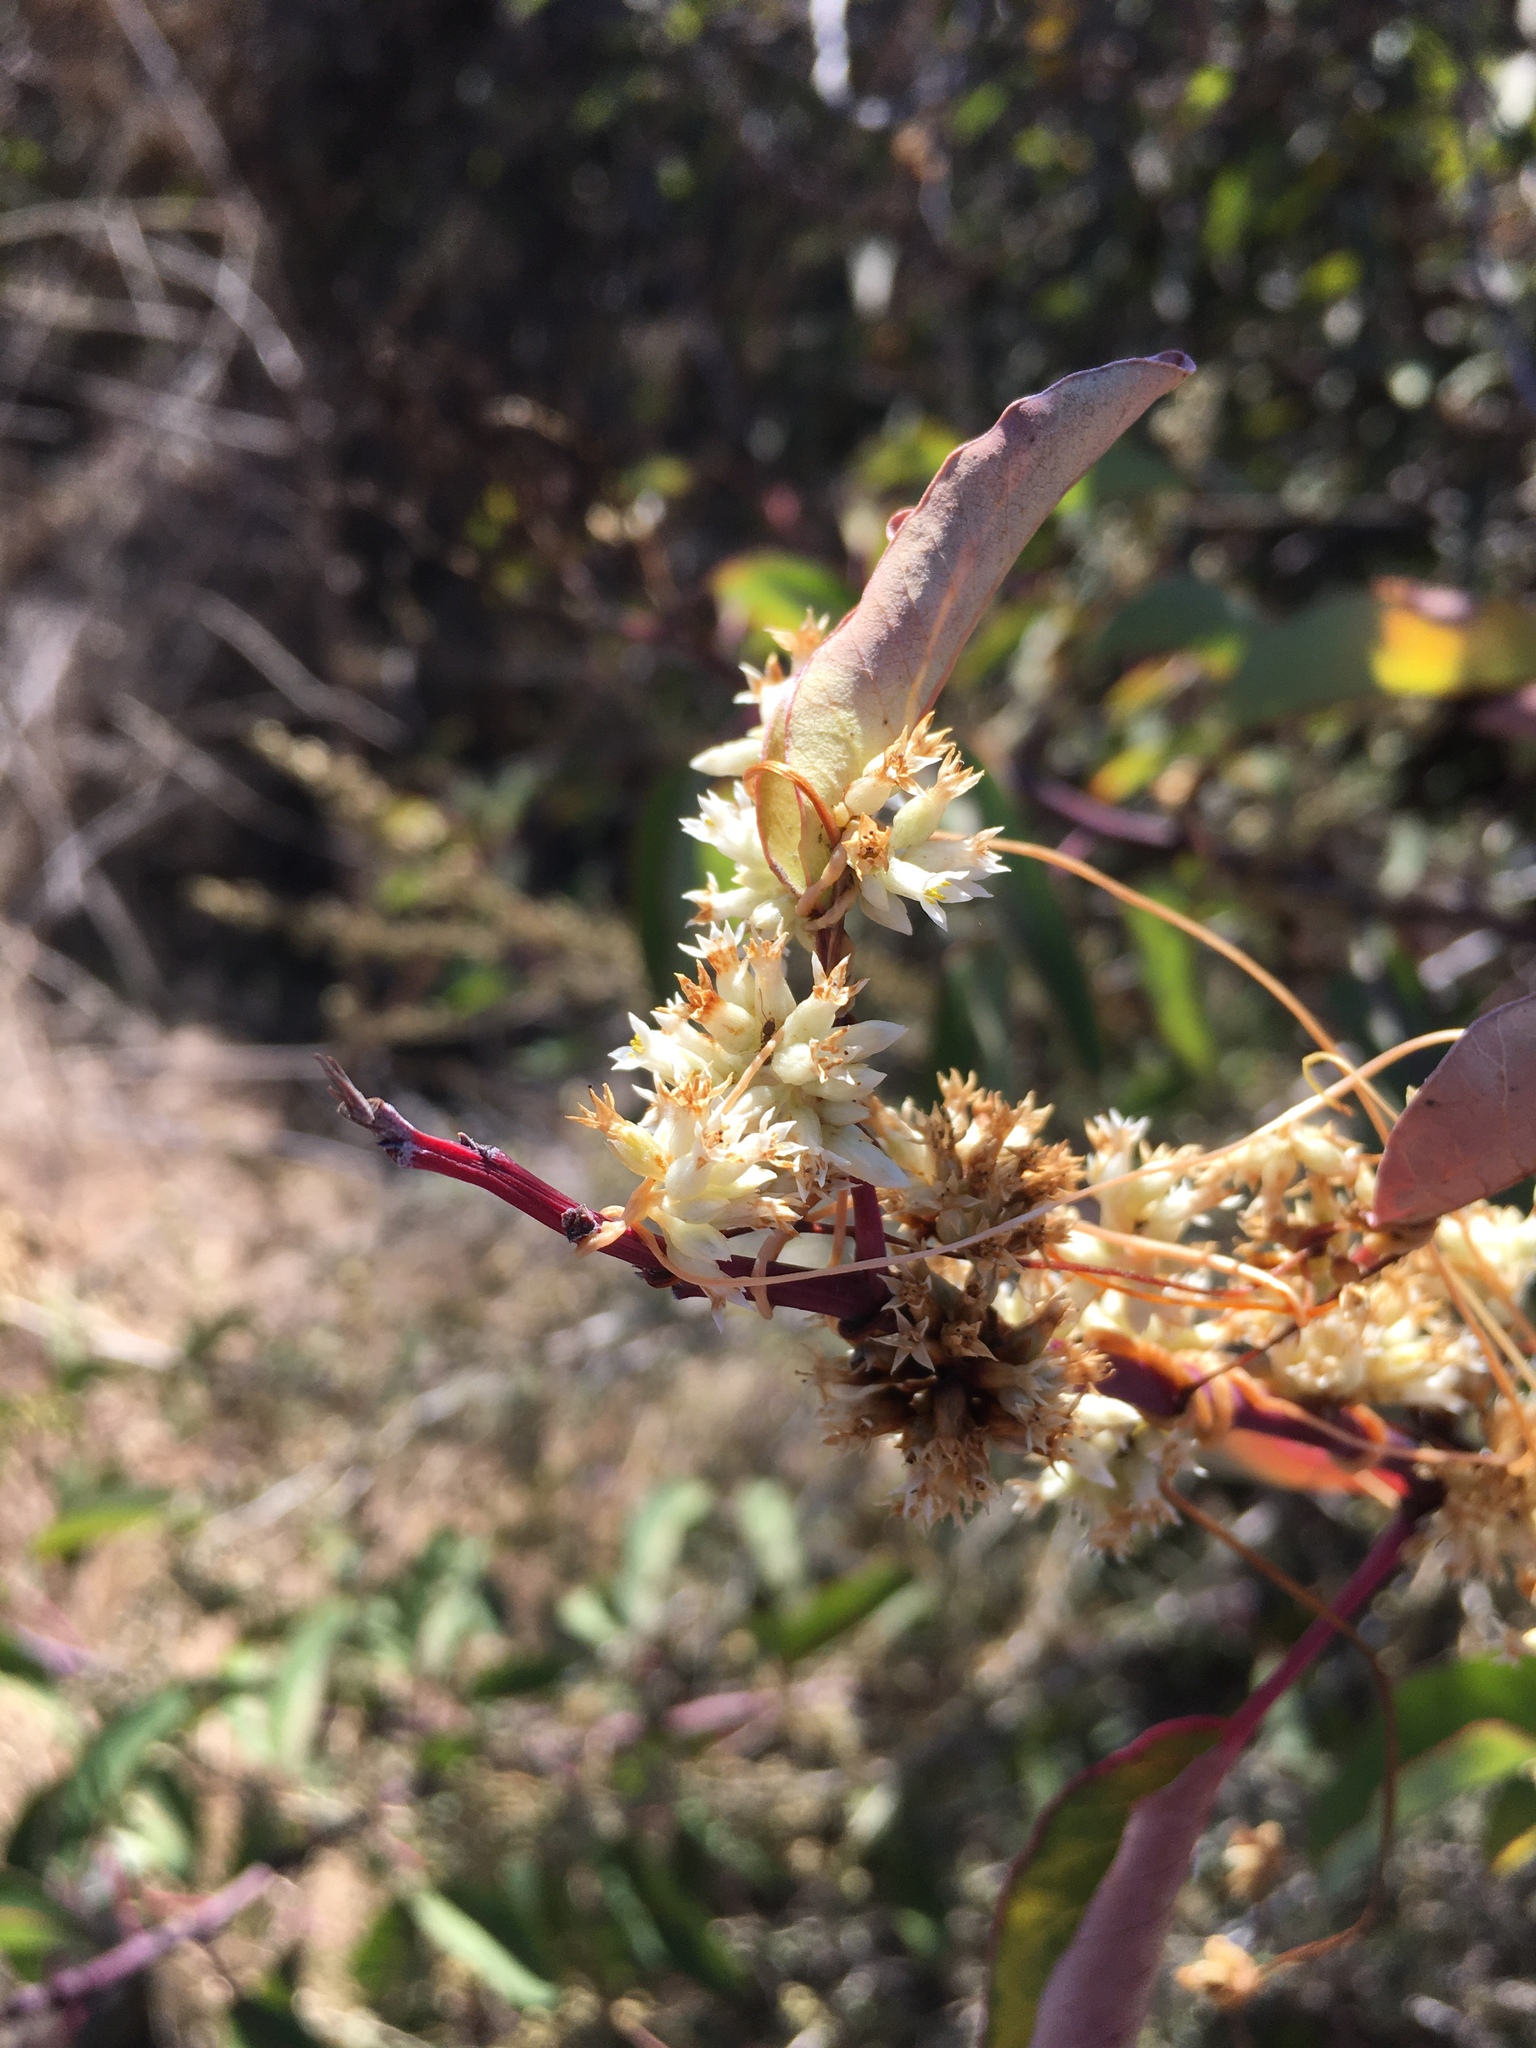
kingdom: Plantae
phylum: Tracheophyta
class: Magnoliopsida
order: Solanales
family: Convolvulaceae
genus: Cuscuta
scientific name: Cuscuta subinclusa
